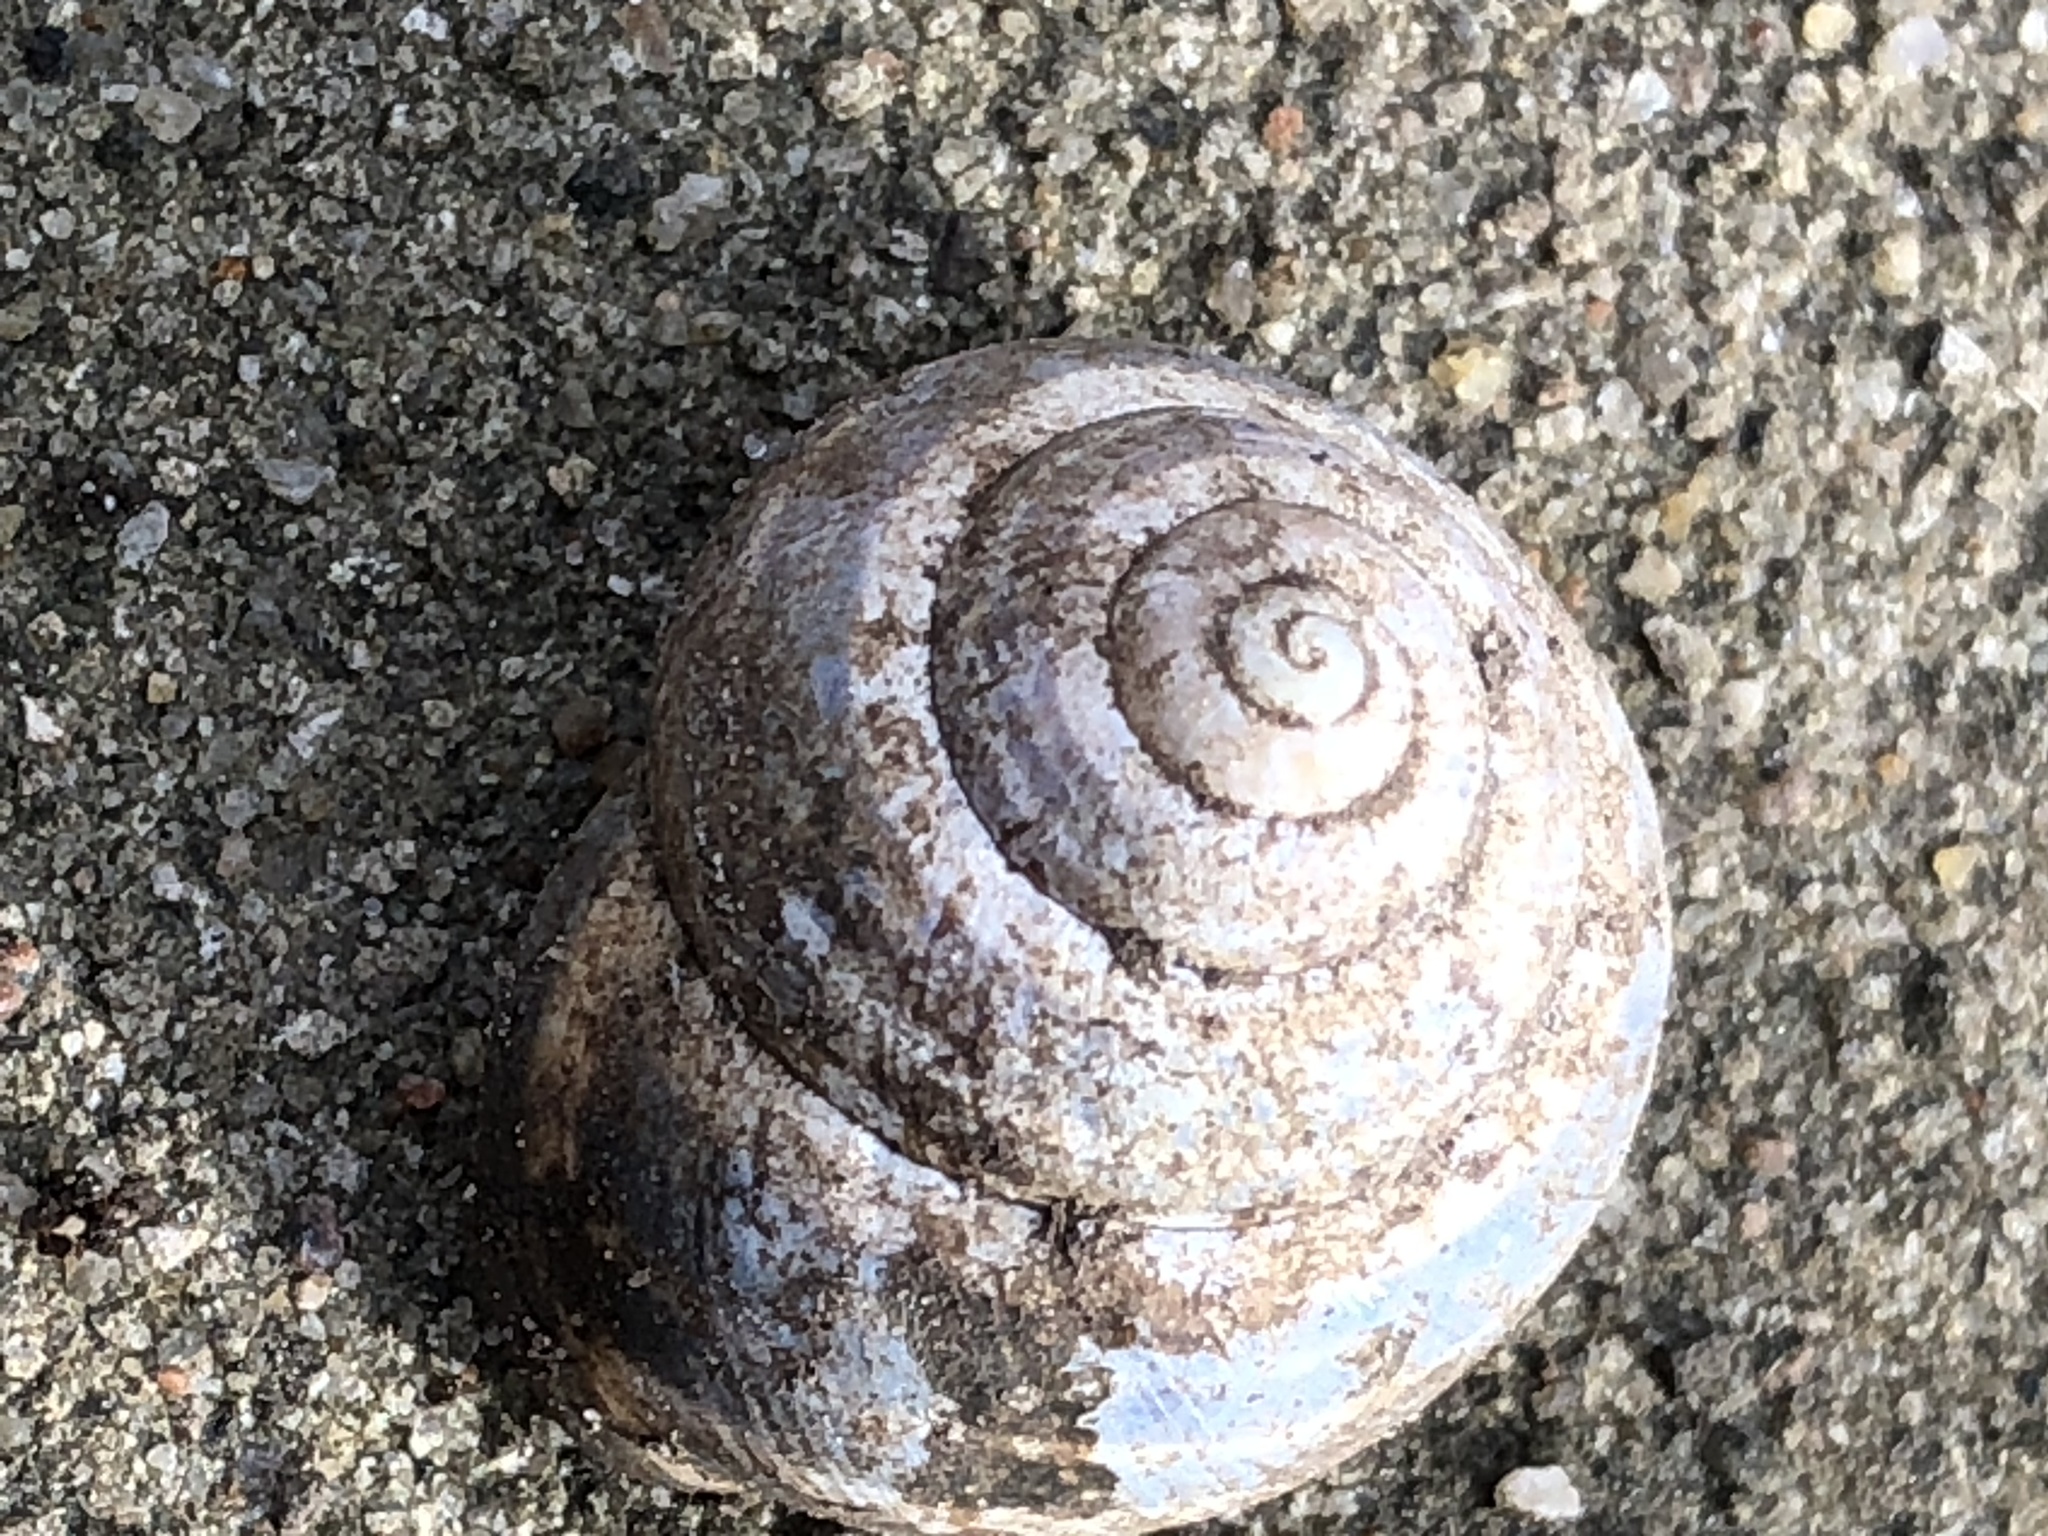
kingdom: Animalia
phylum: Mollusca
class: Gastropoda
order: Stylommatophora
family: Helicidae
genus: Cepaea
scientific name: Cepaea nemoralis
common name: Grovesnail
